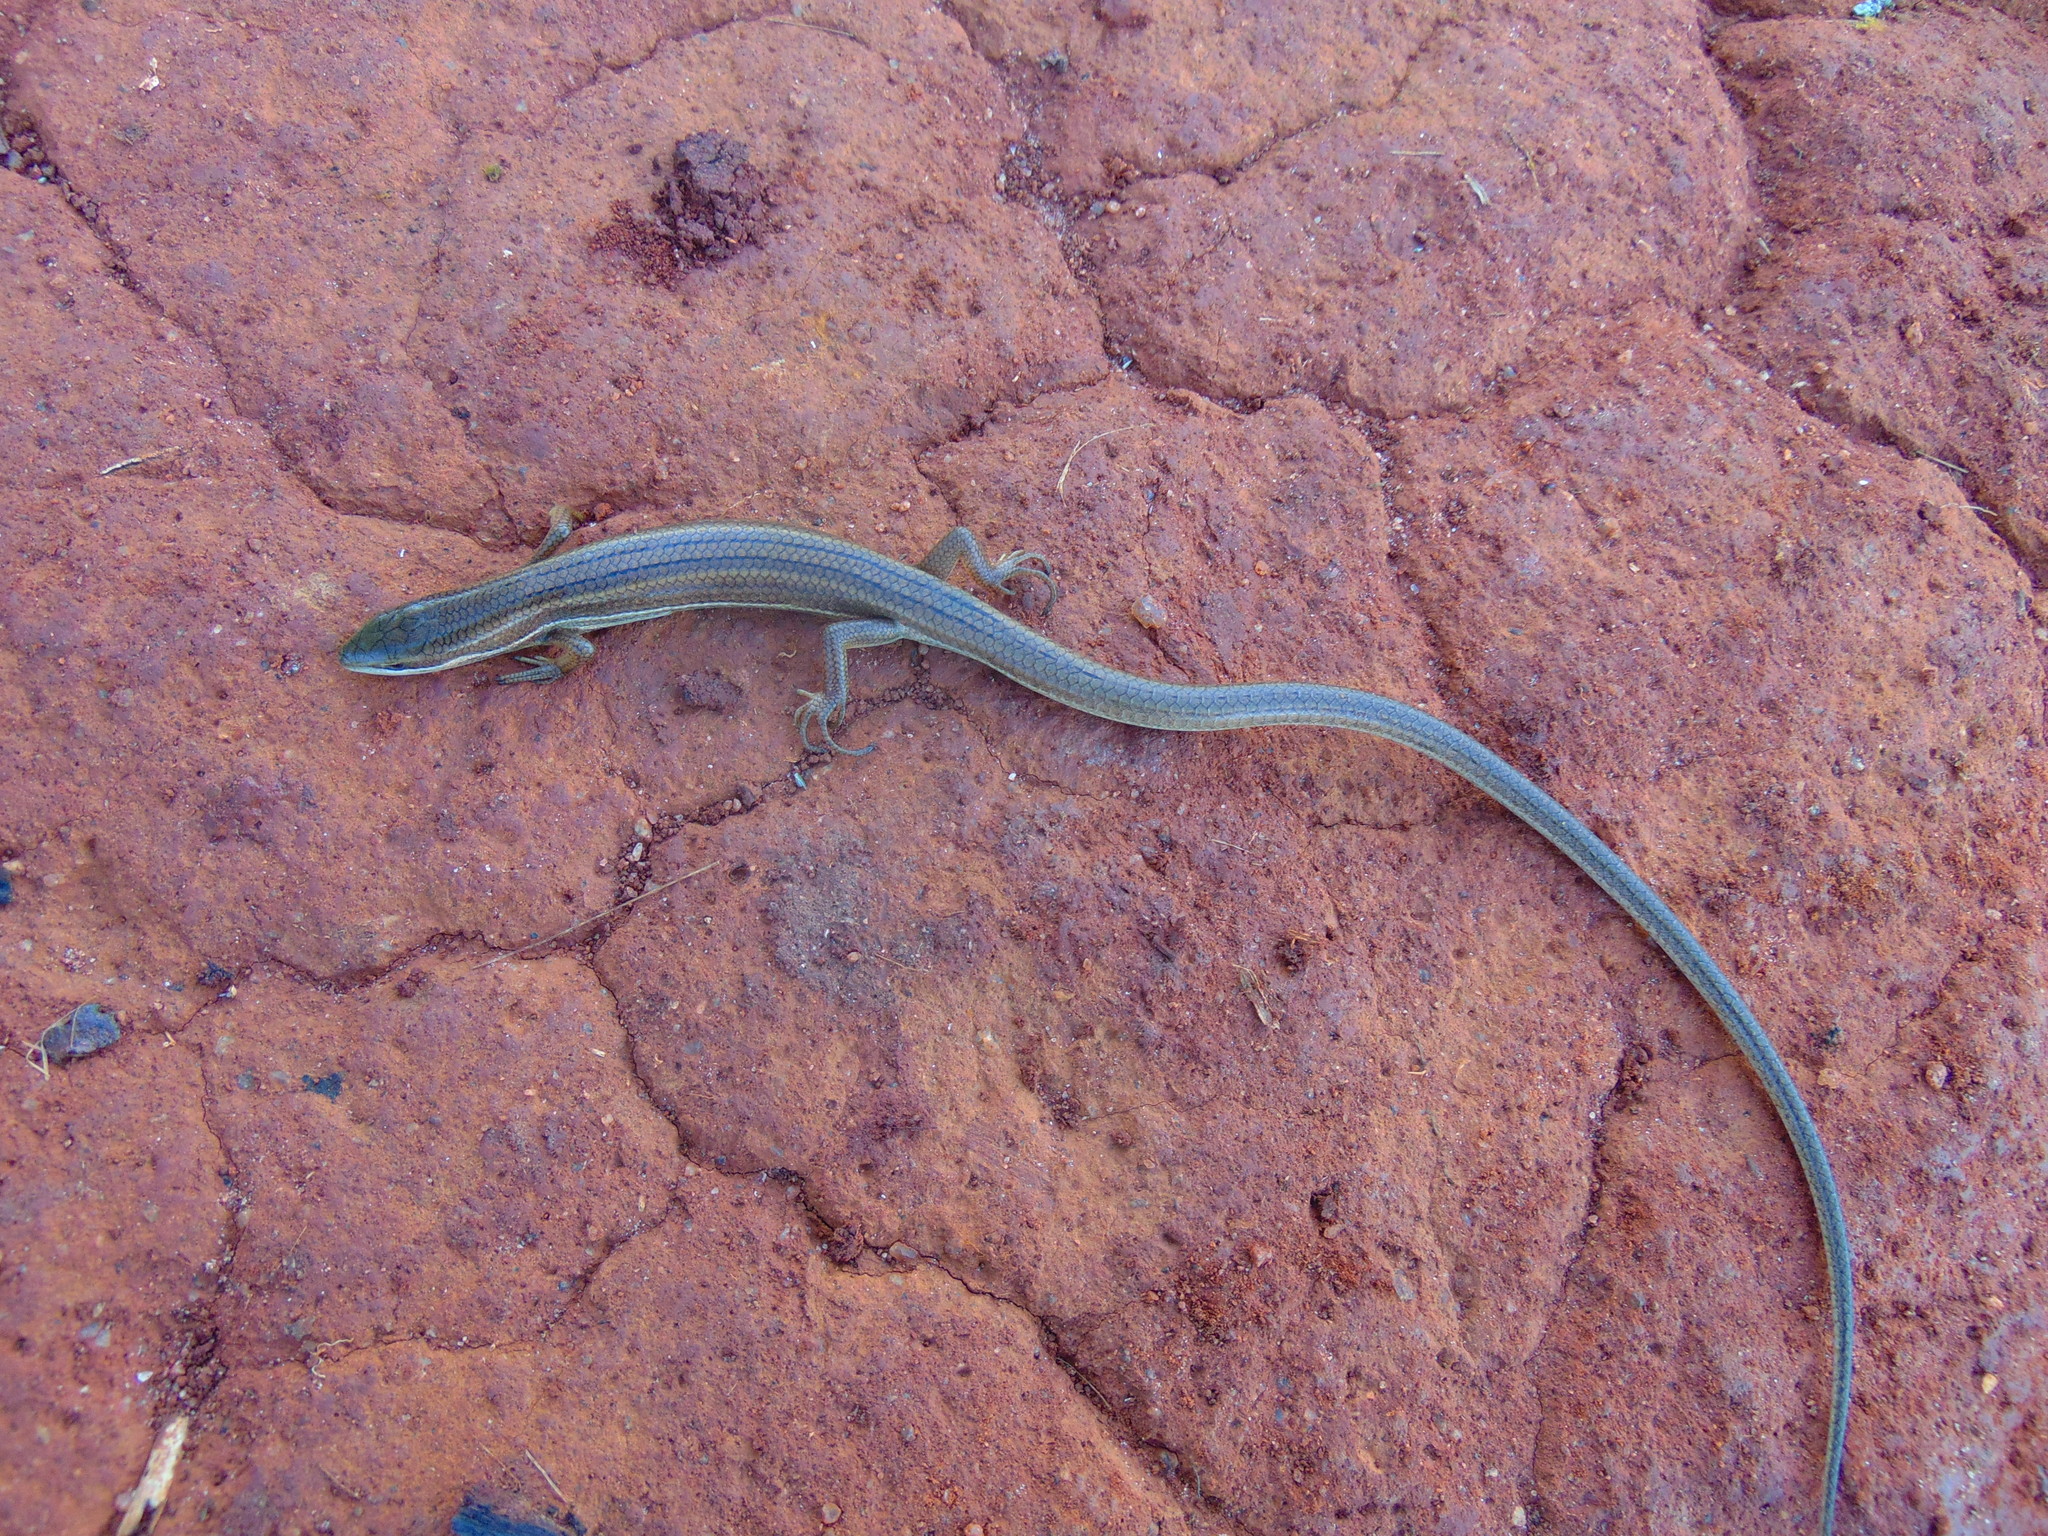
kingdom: Animalia
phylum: Chordata
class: Squamata
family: Scincidae
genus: Trachylepis
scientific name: Trachylepis megalura
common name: Grass-top skink
